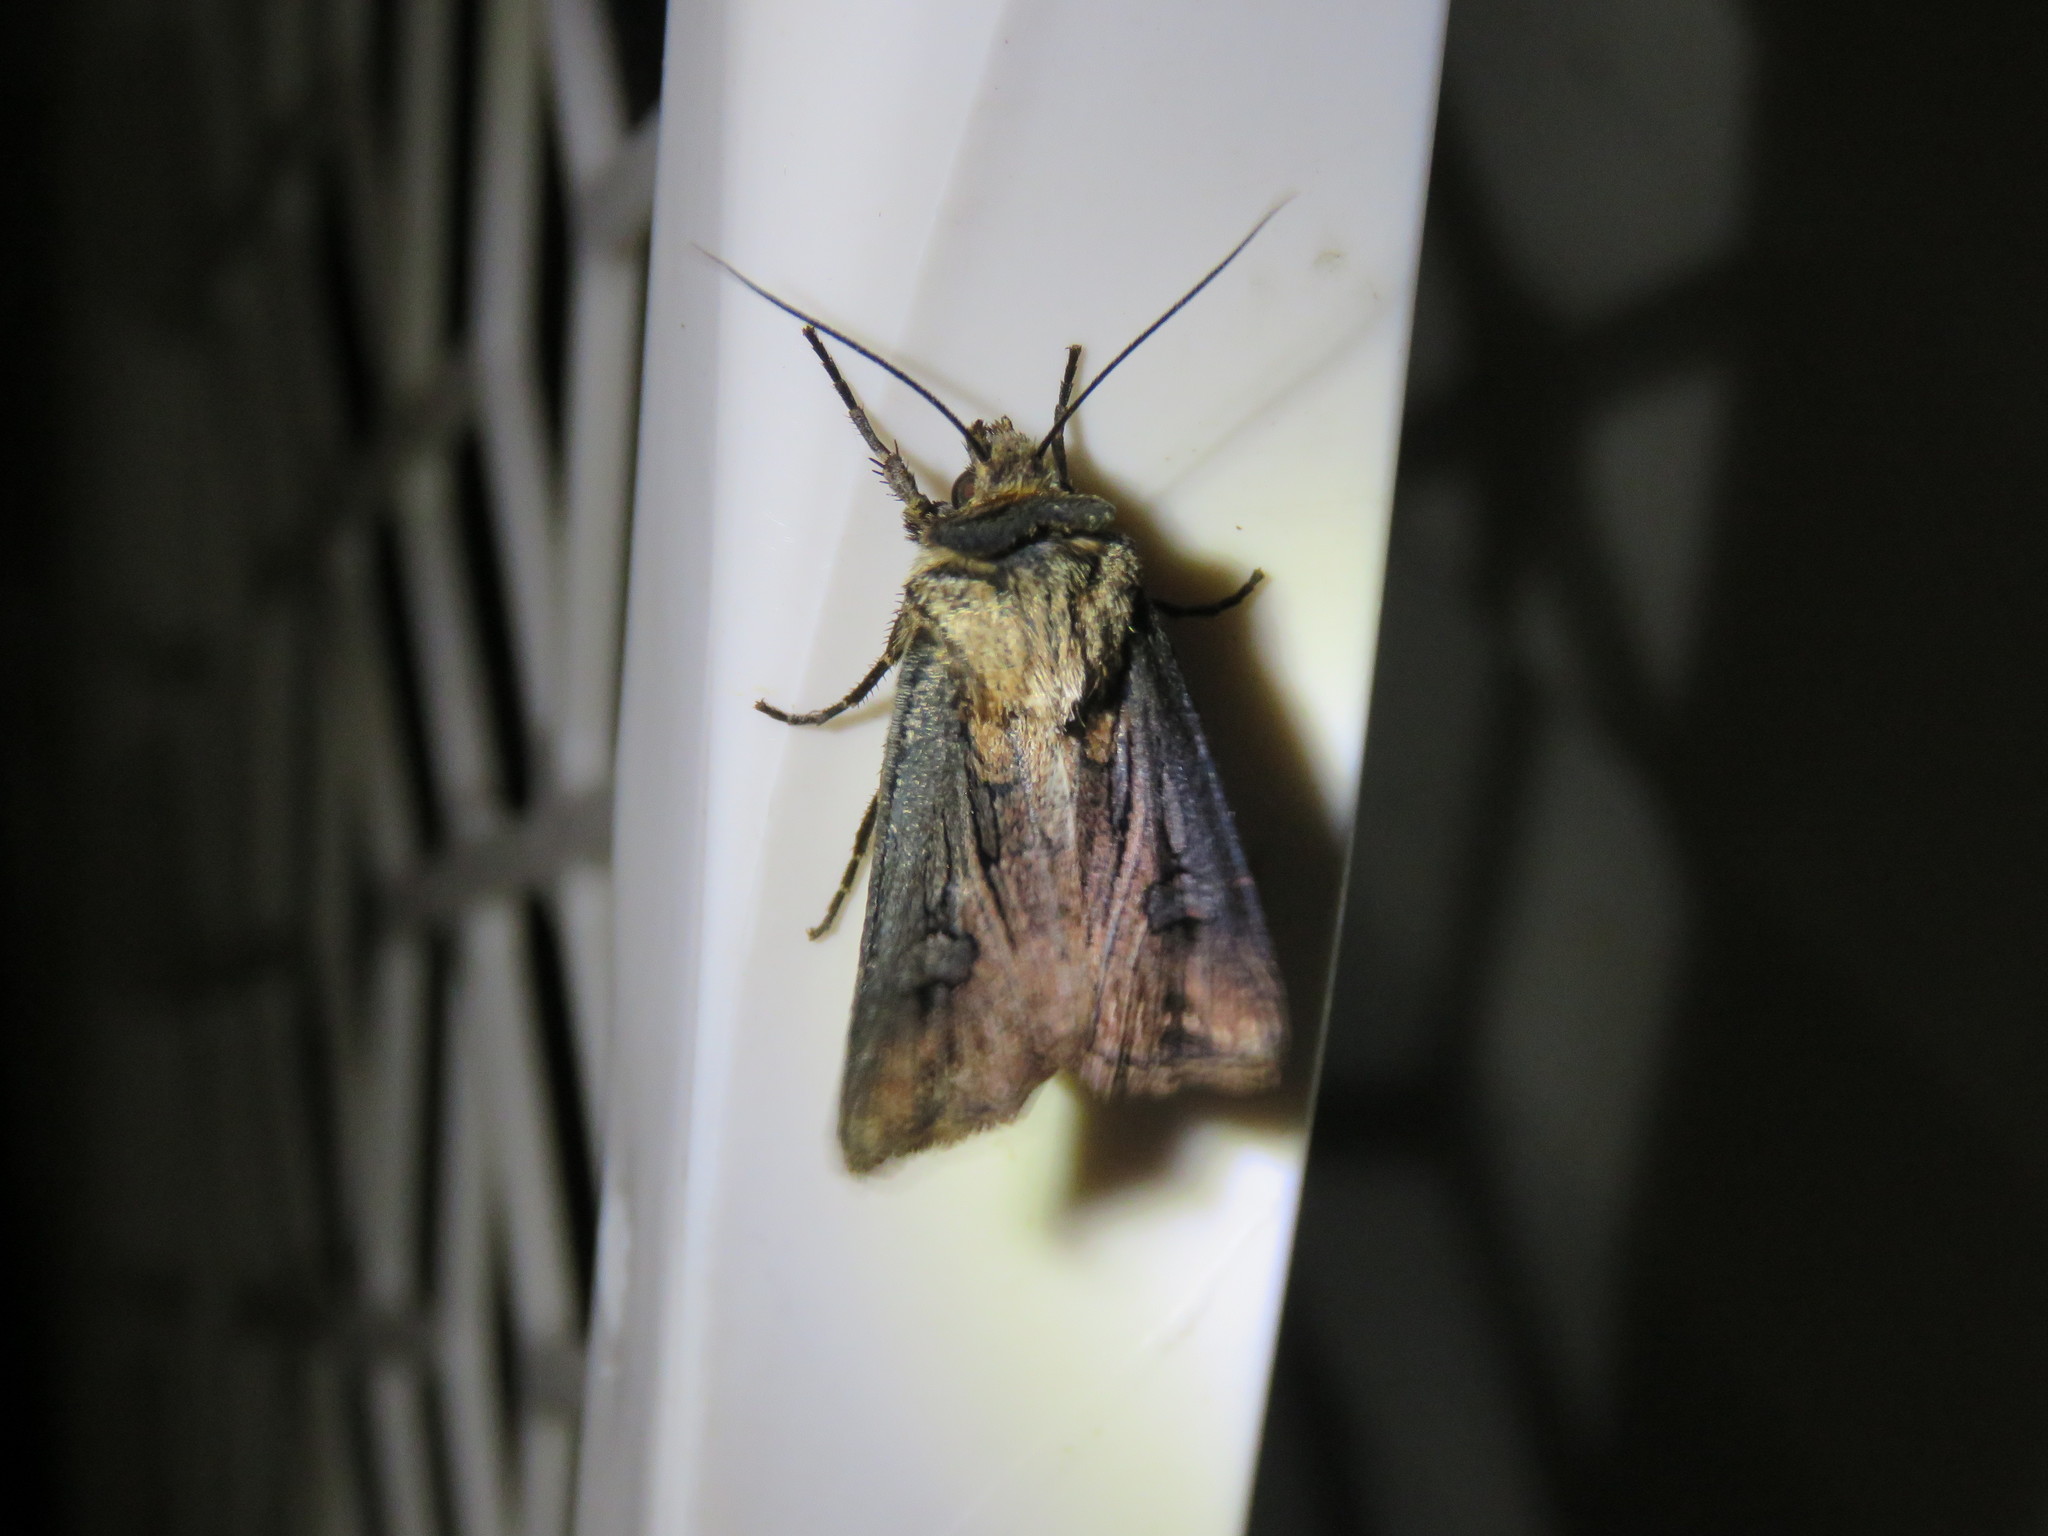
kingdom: Animalia
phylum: Arthropoda
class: Insecta
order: Lepidoptera
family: Noctuidae
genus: Agrotis
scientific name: Agrotis venerabilis
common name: Venerable dart
